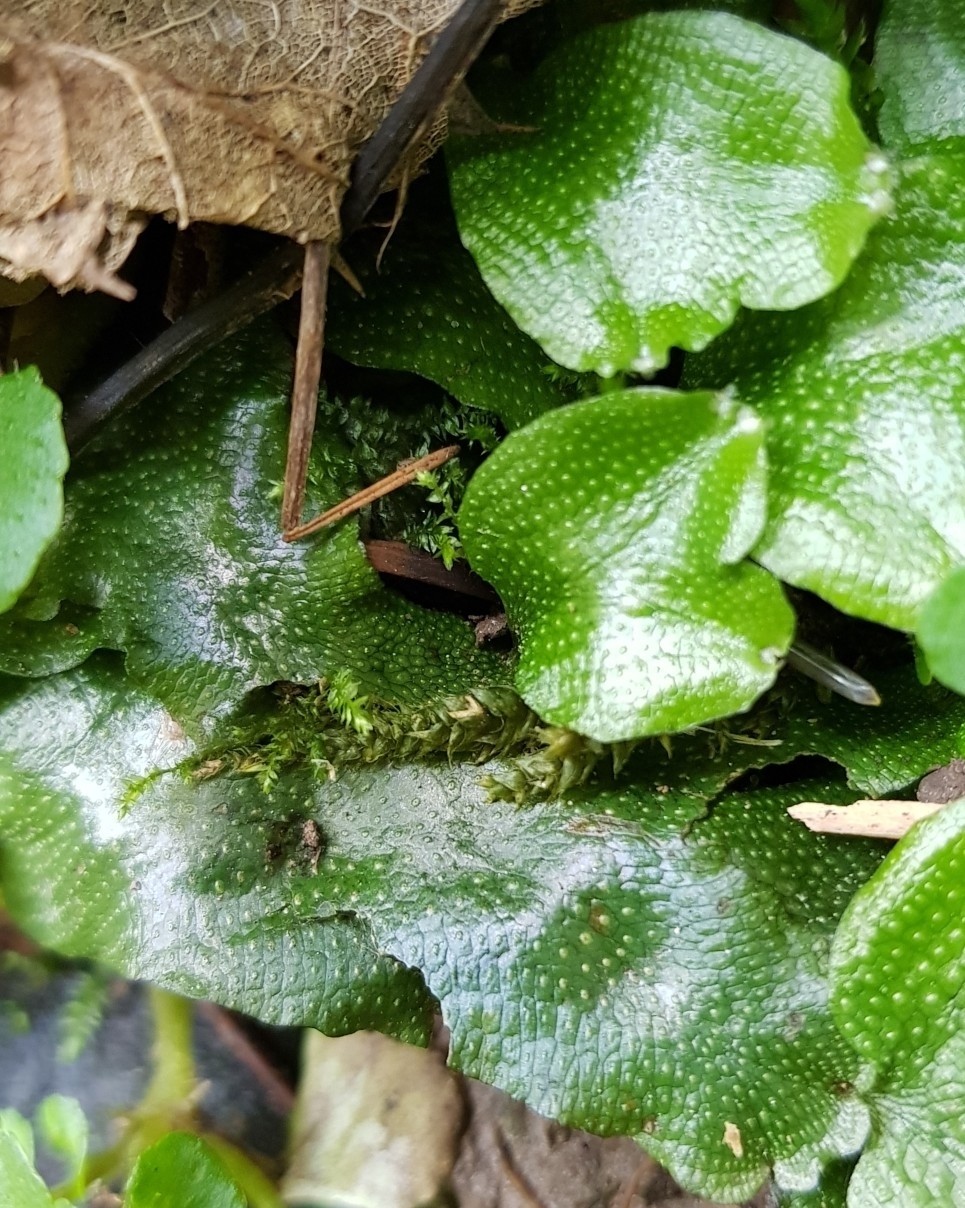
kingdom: Plantae
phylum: Marchantiophyta
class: Marchantiopsida
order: Marchantiales
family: Conocephalaceae
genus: Conocephalum
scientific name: Conocephalum conicum
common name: Great scented liverwort
